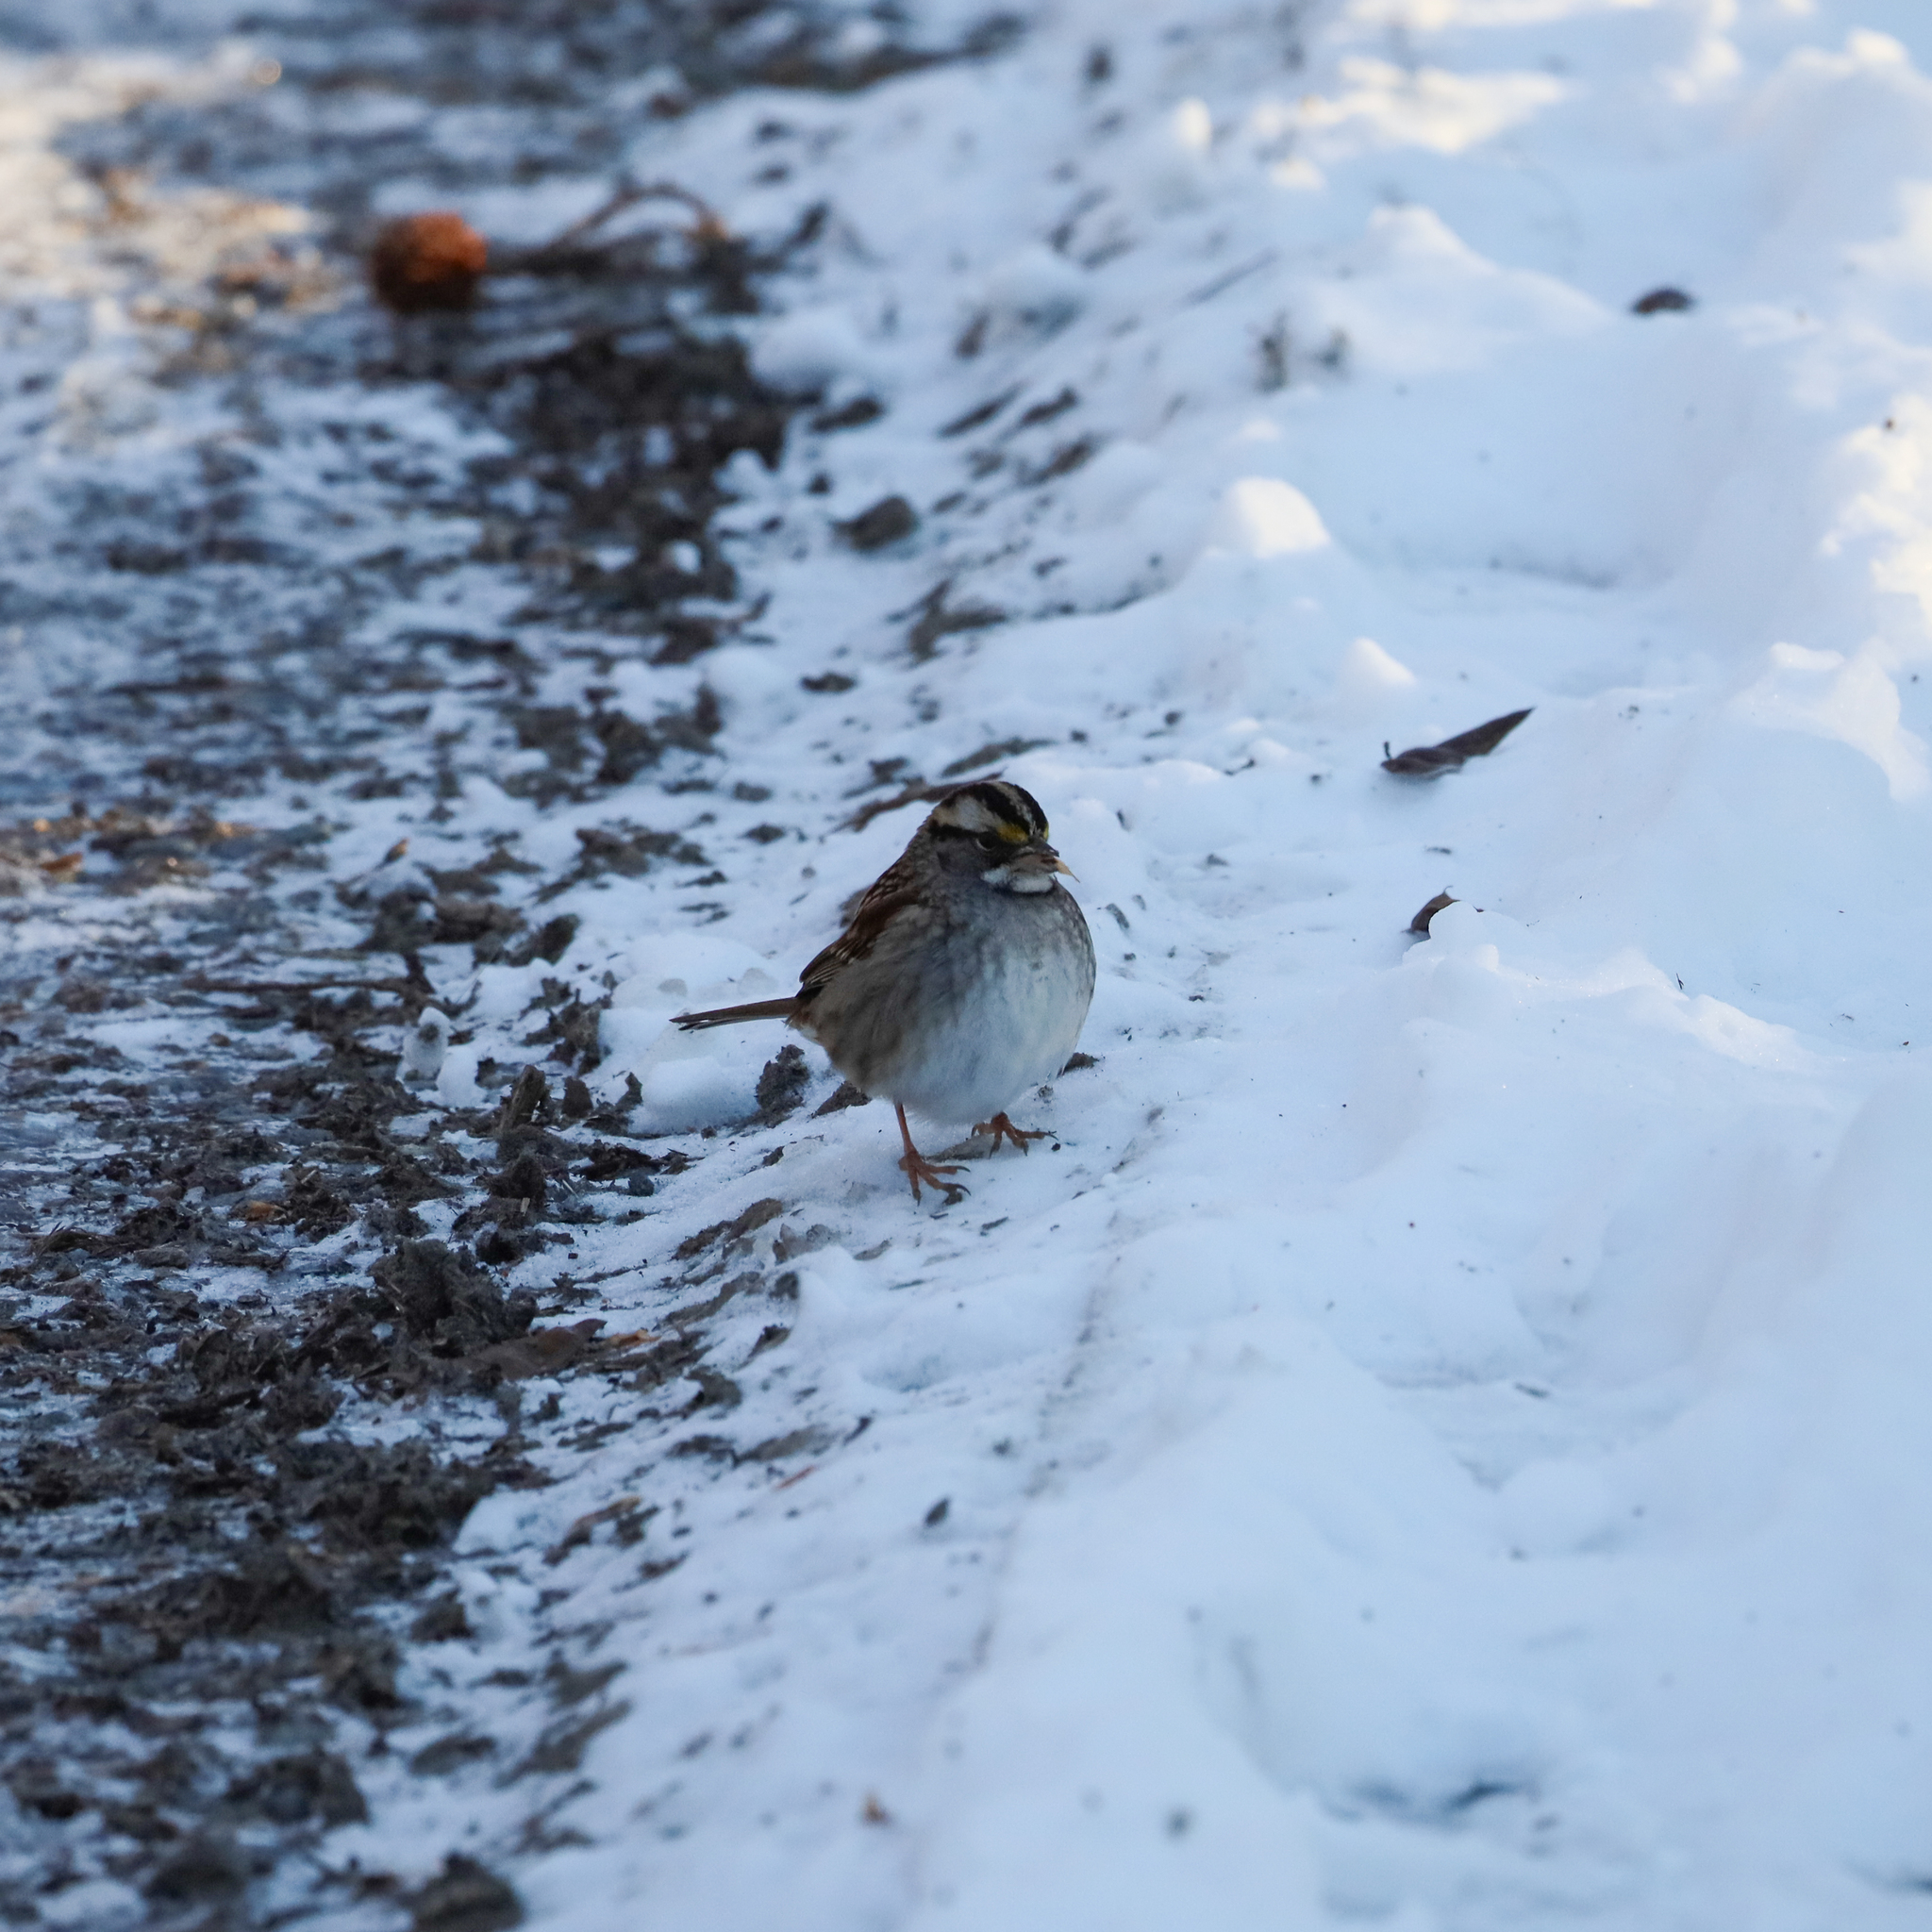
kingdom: Animalia
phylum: Chordata
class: Aves
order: Passeriformes
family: Passerellidae
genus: Zonotrichia
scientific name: Zonotrichia albicollis
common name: White-throated sparrow
